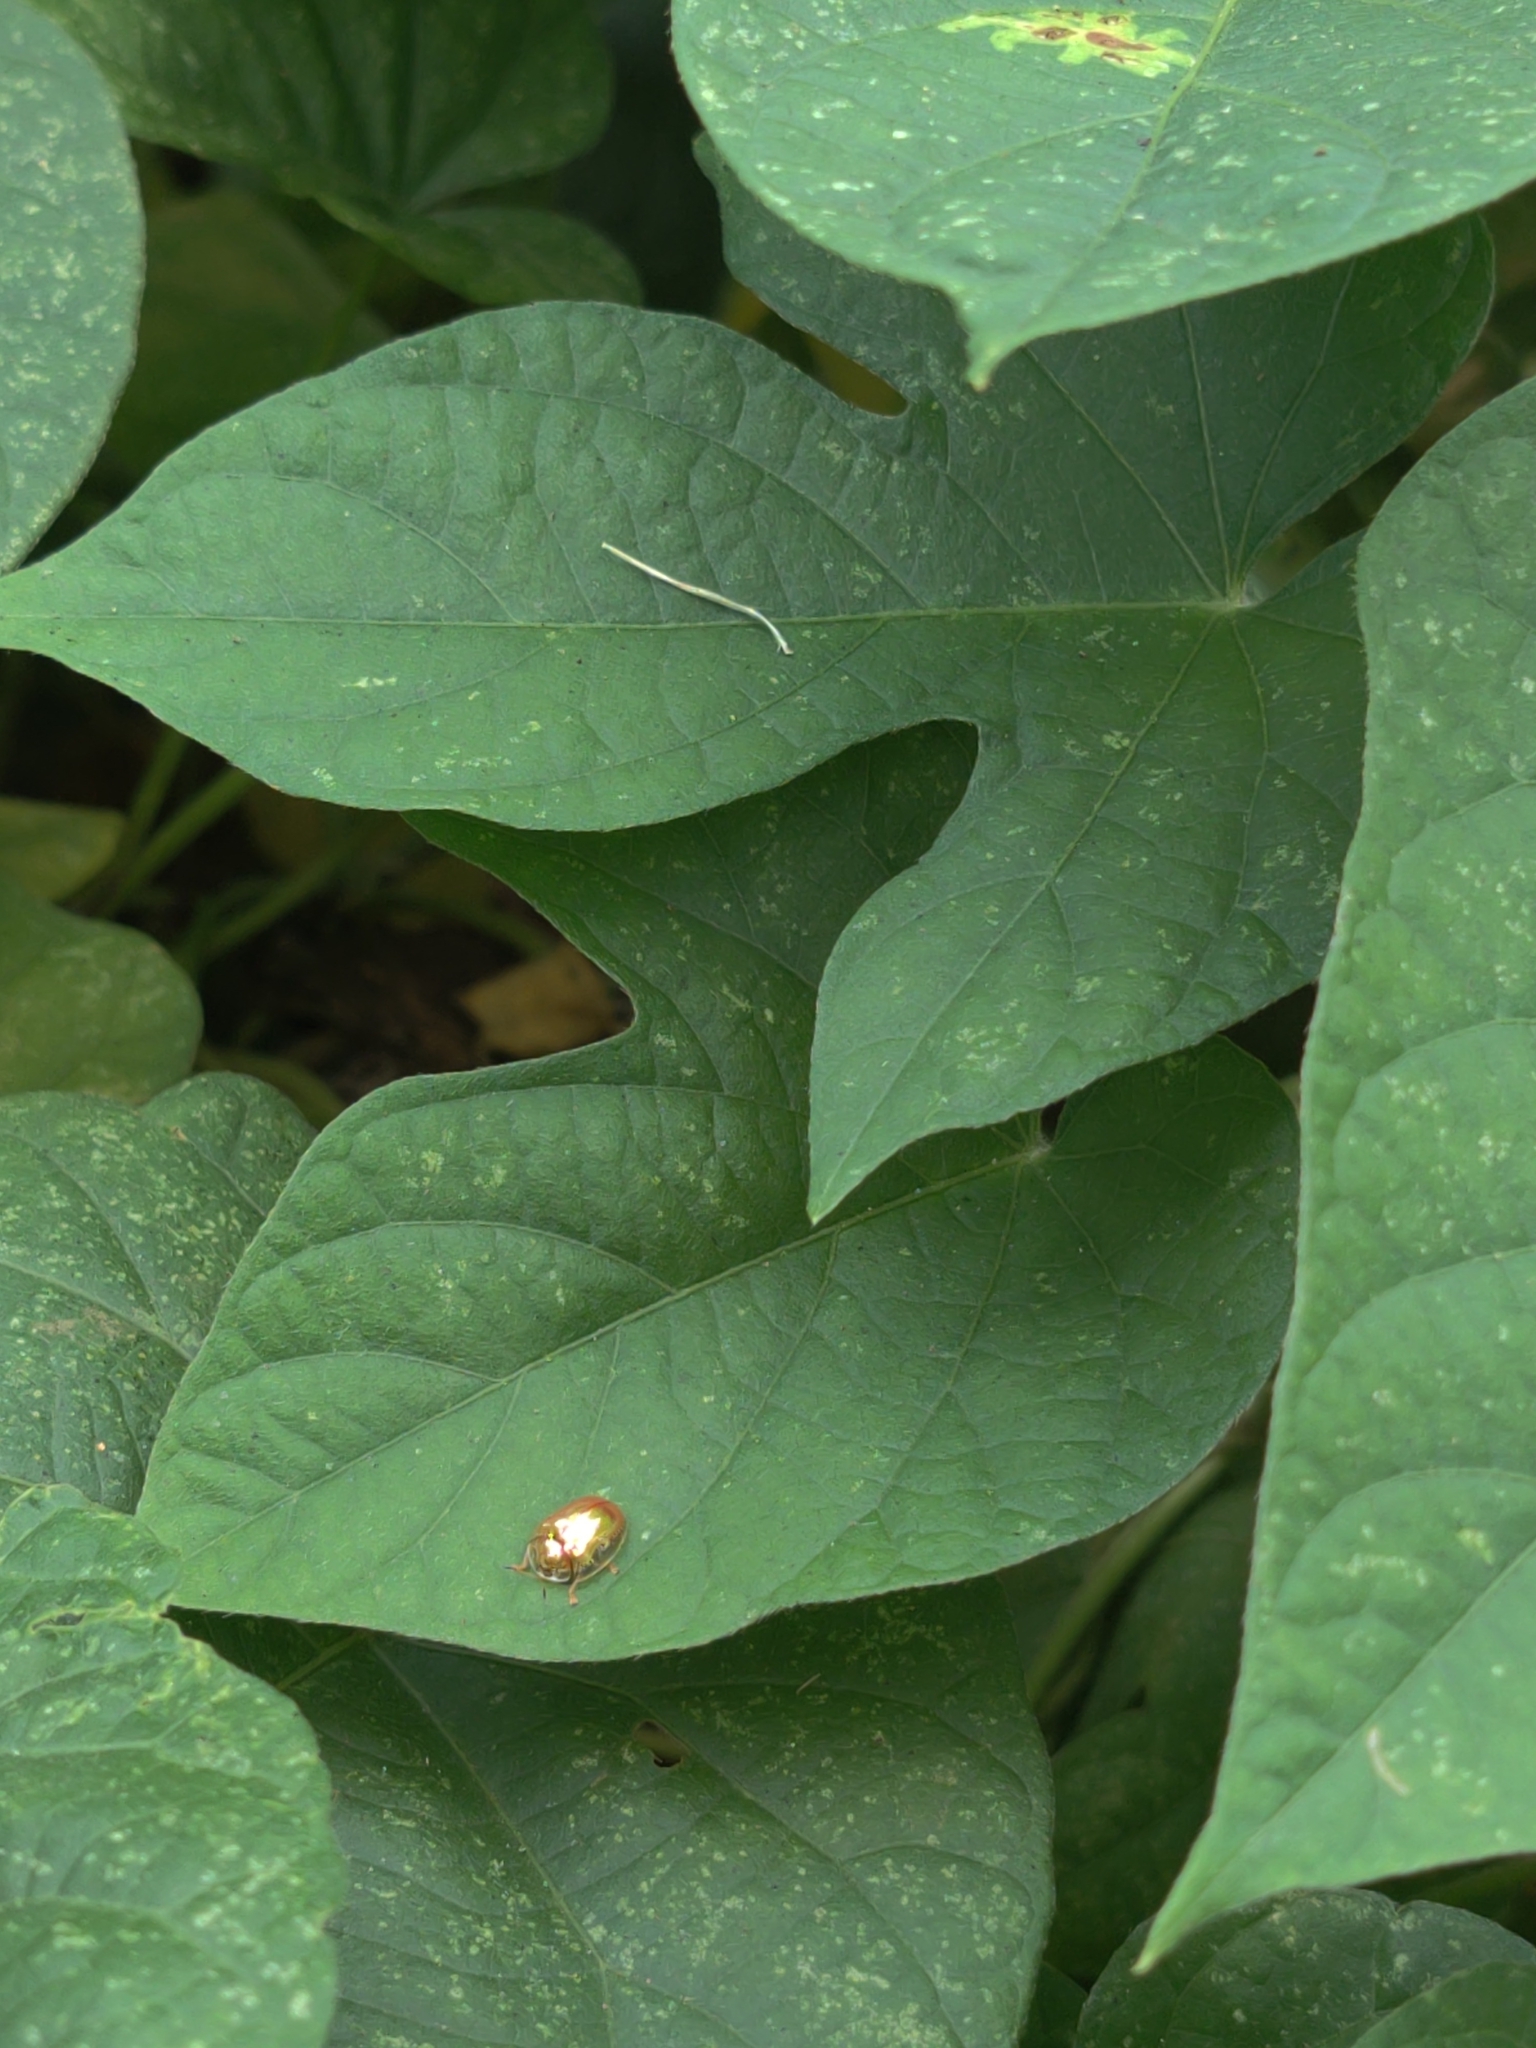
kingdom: Animalia
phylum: Arthropoda
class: Insecta
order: Coleoptera
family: Chrysomelidae
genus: Charidotella
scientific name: Charidotella sexpunctata
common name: Golden tortoise beetle
